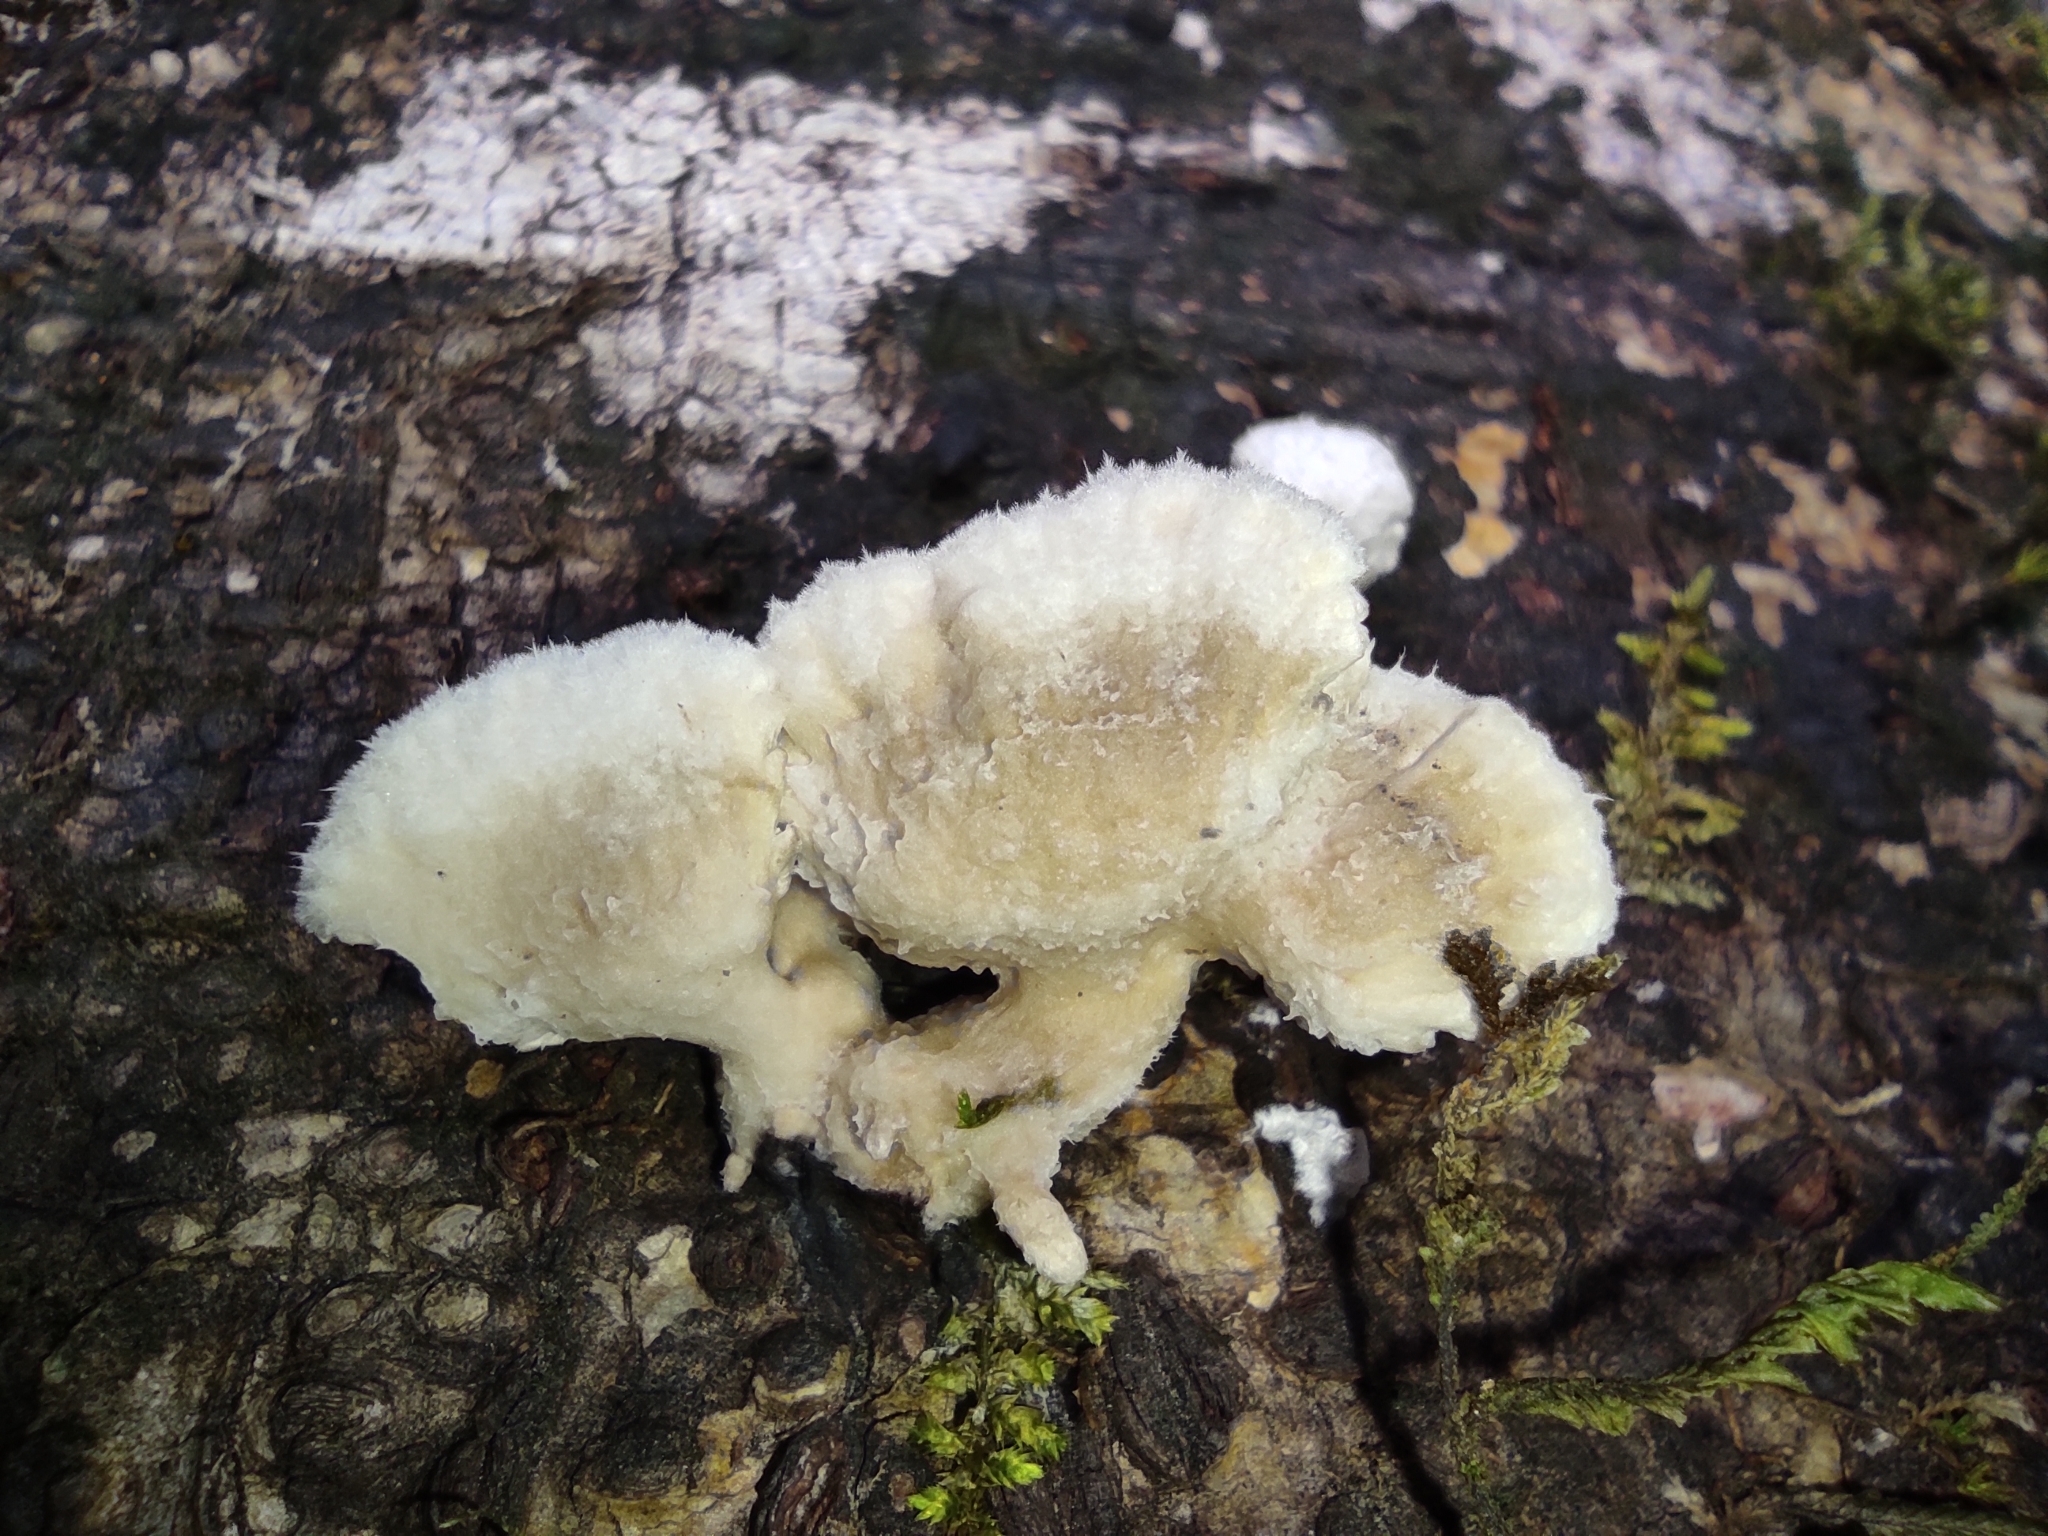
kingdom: Fungi
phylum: Basidiomycota
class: Agaricomycetes
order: Agaricales
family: Schizophyllaceae
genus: Schizophyllum
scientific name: Schizophyllum commune
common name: Common porecrust
